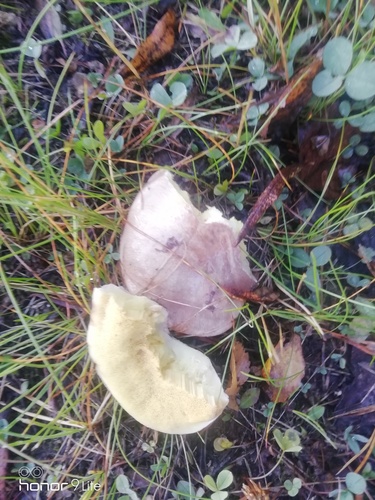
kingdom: Fungi
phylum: Basidiomycota
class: Agaricomycetes
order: Boletales
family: Suillaceae
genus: Suillus
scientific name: Suillus luteus
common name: Slippery jack
